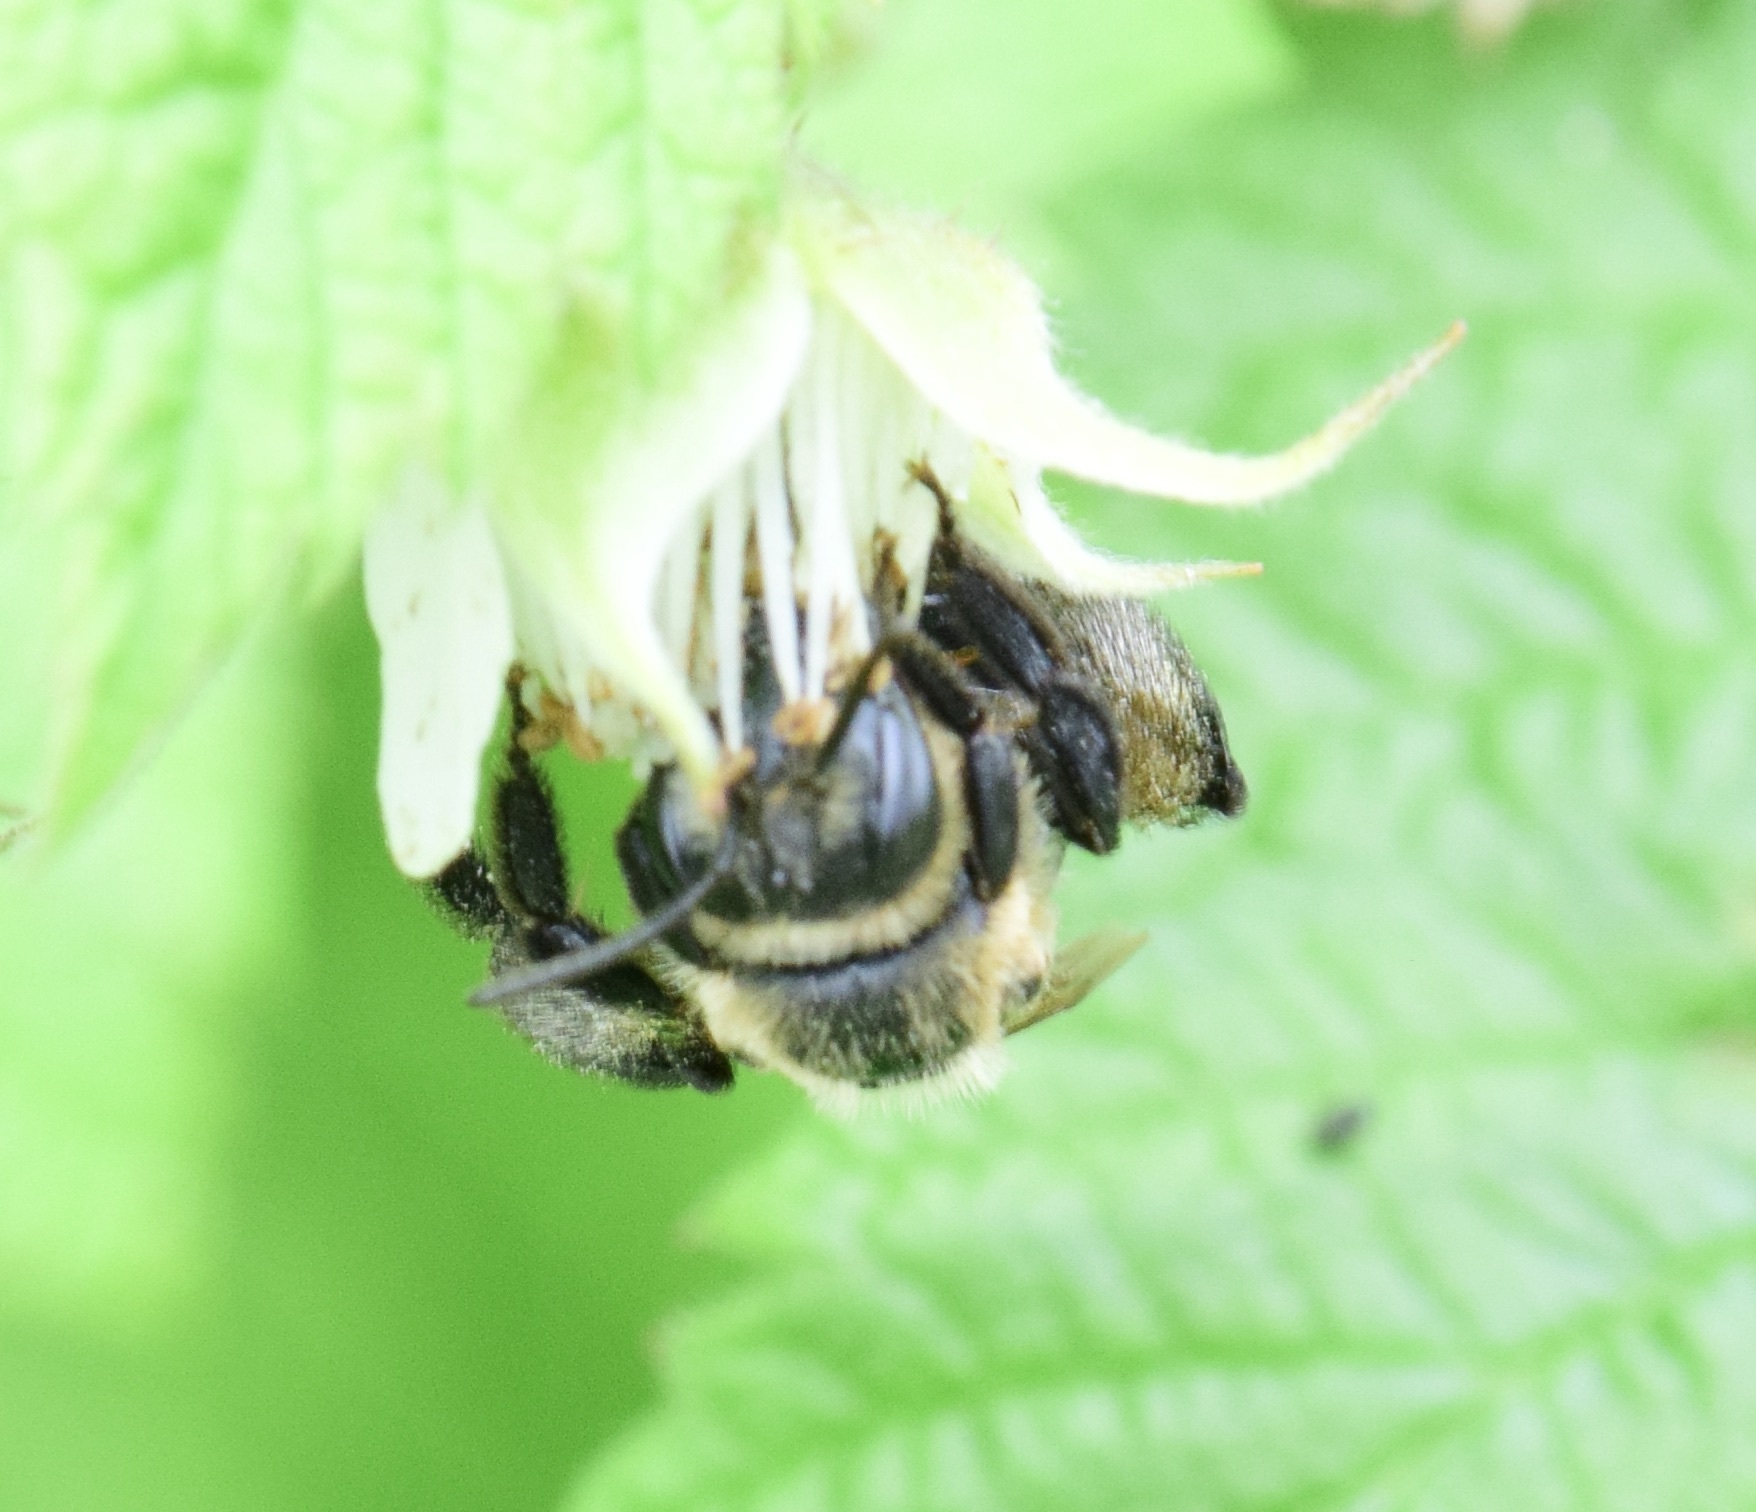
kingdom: Animalia
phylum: Arthropoda
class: Insecta
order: Hymenoptera
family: Andrenidae
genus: Andrena
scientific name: Andrena vicina
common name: Neighborly mining bee
